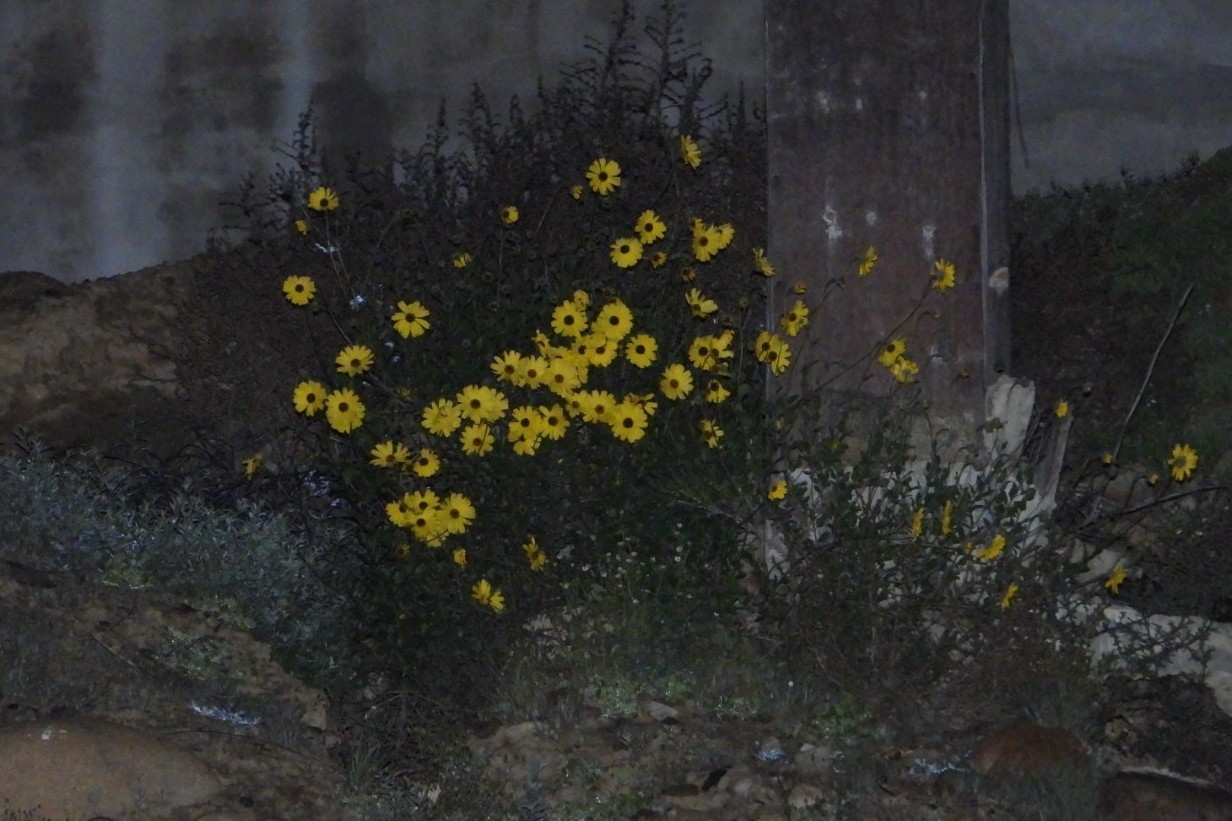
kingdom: Plantae
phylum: Tracheophyta
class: Magnoliopsida
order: Asterales
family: Asteraceae
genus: Encelia
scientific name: Encelia californica
